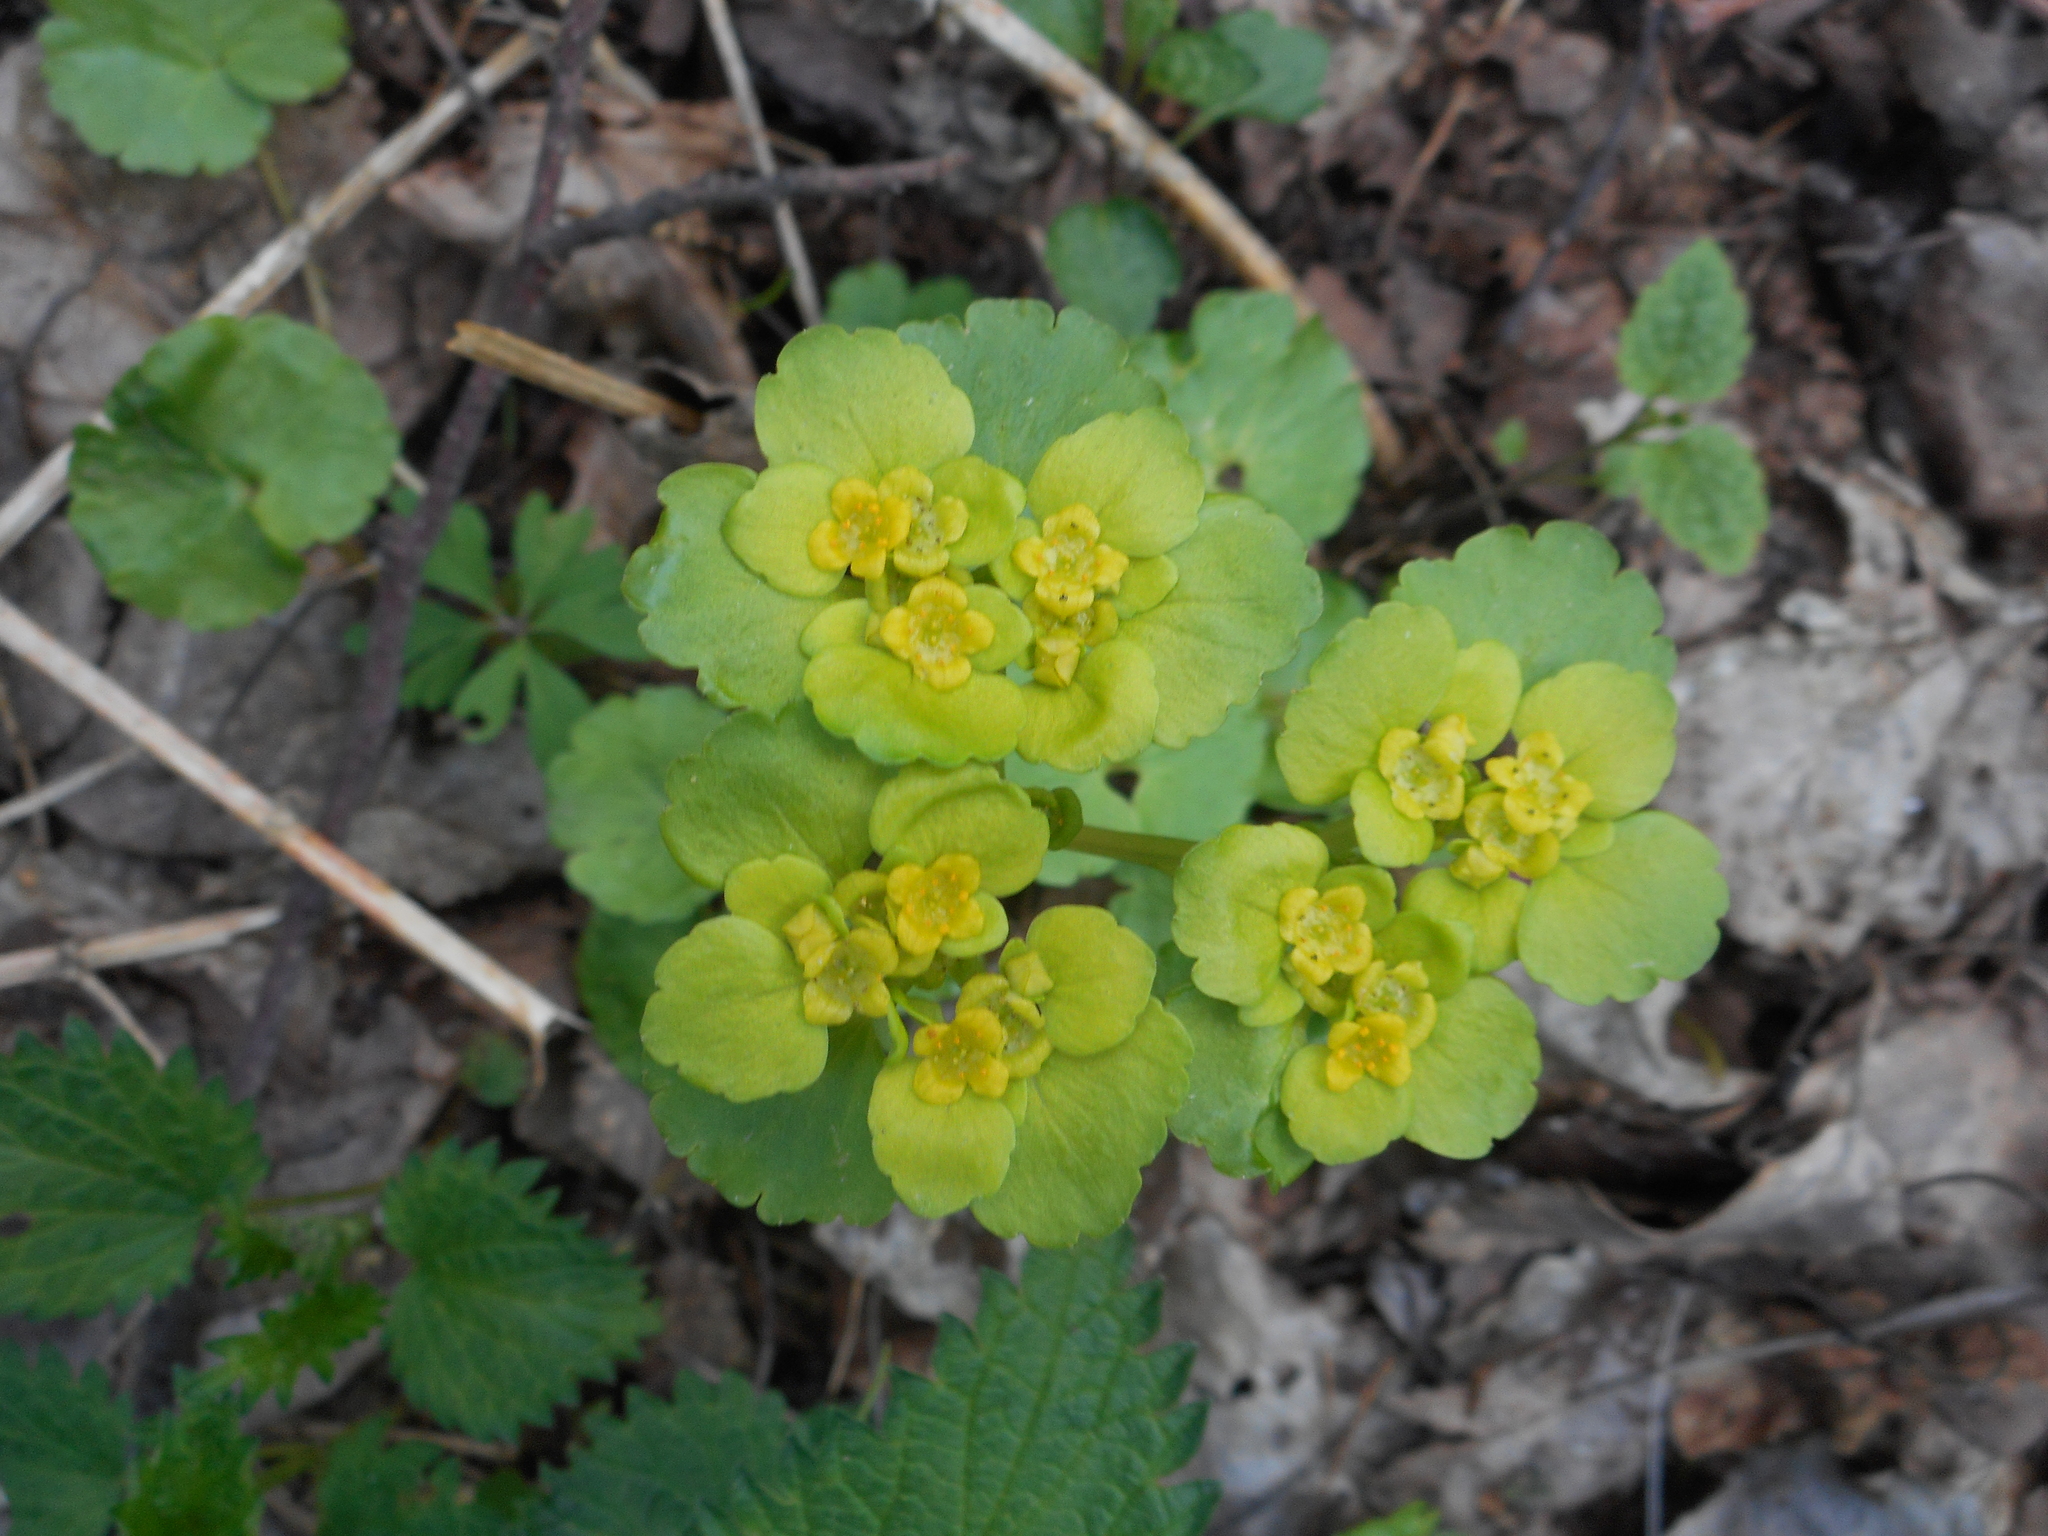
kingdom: Plantae
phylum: Tracheophyta
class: Magnoliopsida
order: Saxifragales
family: Saxifragaceae
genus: Chrysosplenium
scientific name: Chrysosplenium alternifolium
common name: Alternate-leaved golden-saxifrage
